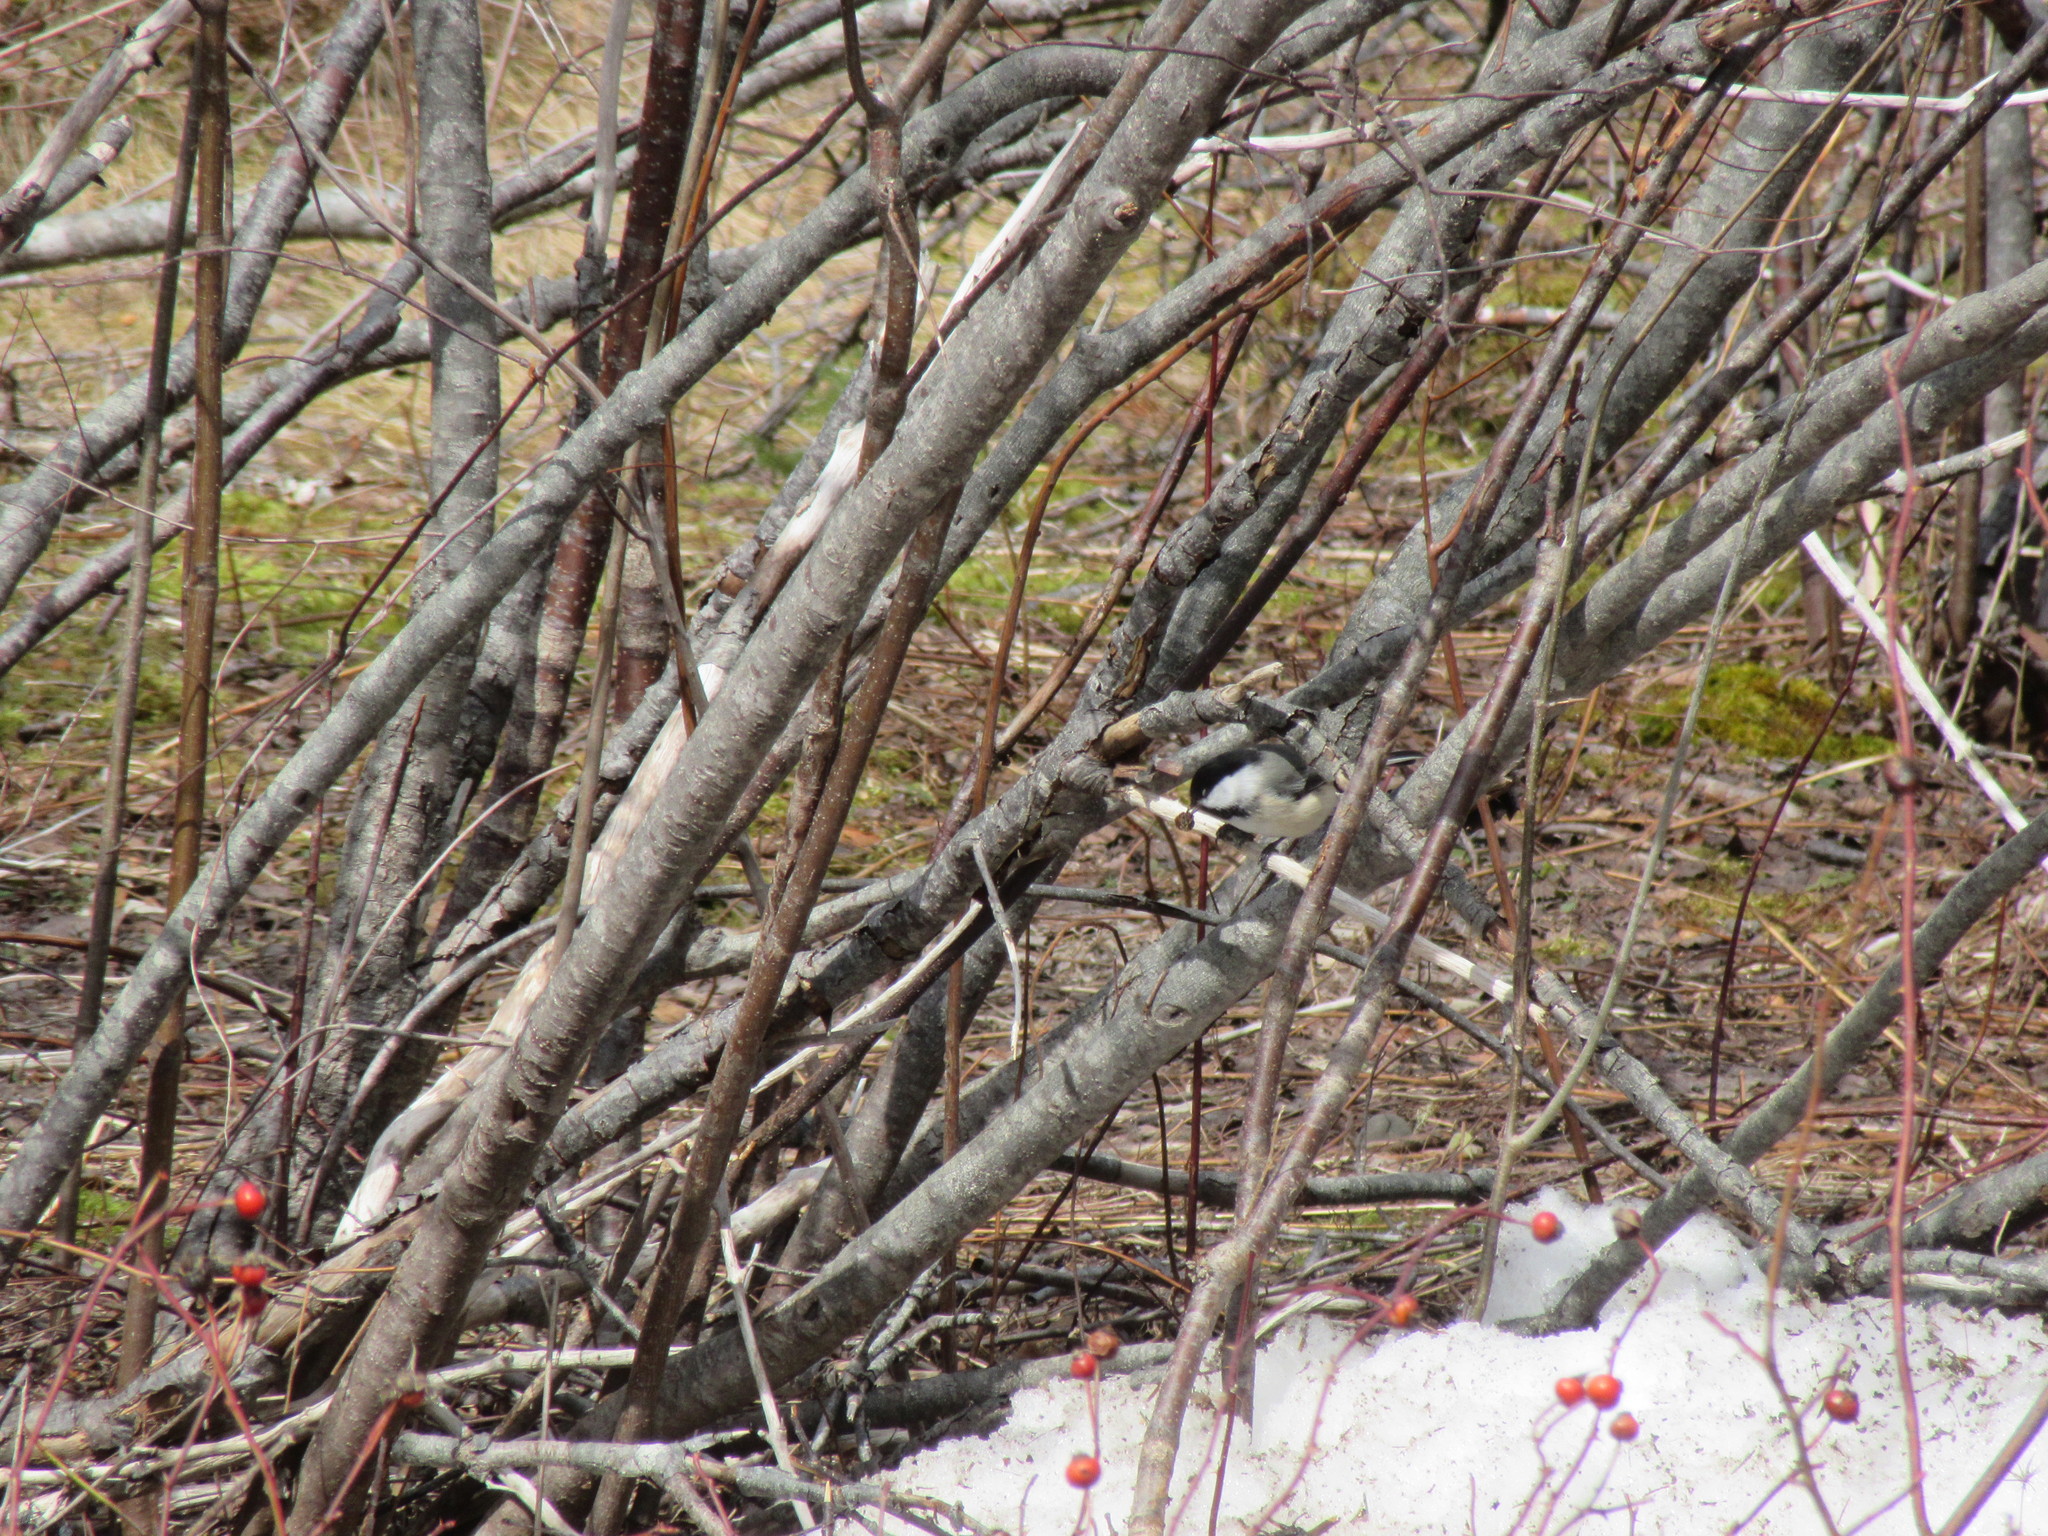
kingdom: Animalia
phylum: Chordata
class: Aves
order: Passeriformes
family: Paridae
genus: Poecile
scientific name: Poecile atricapillus
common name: Black-capped chickadee
